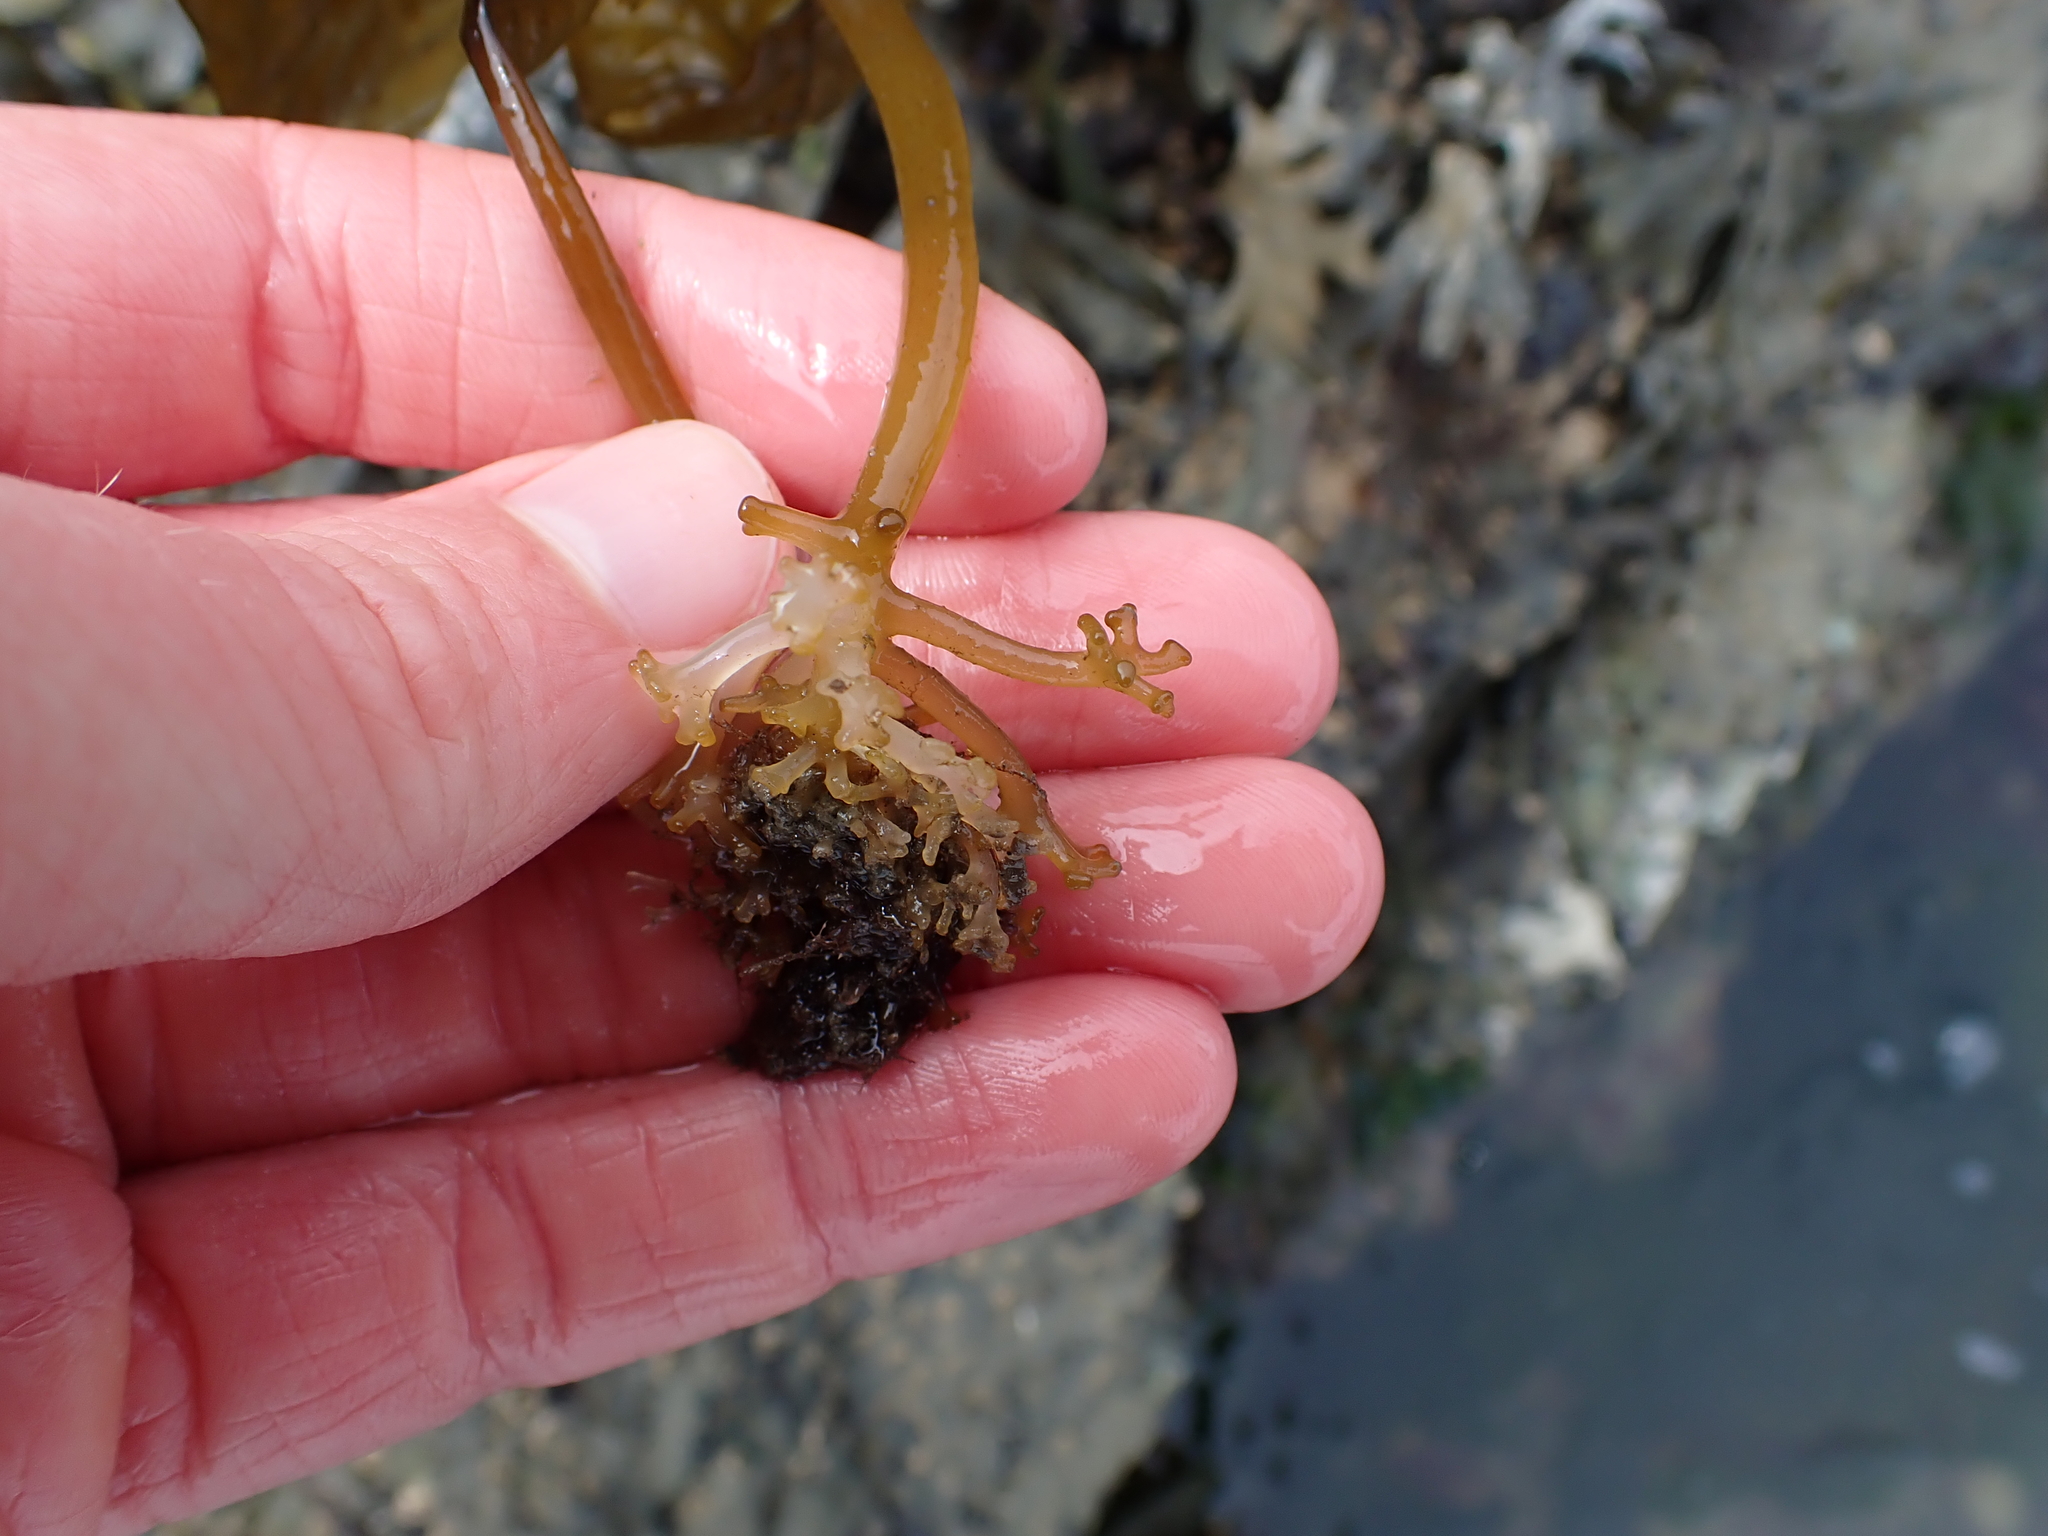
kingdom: Chromista
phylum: Ochrophyta
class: Phaeophyceae
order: Laminariales
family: Costariaceae
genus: Costaria
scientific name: Costaria costata
